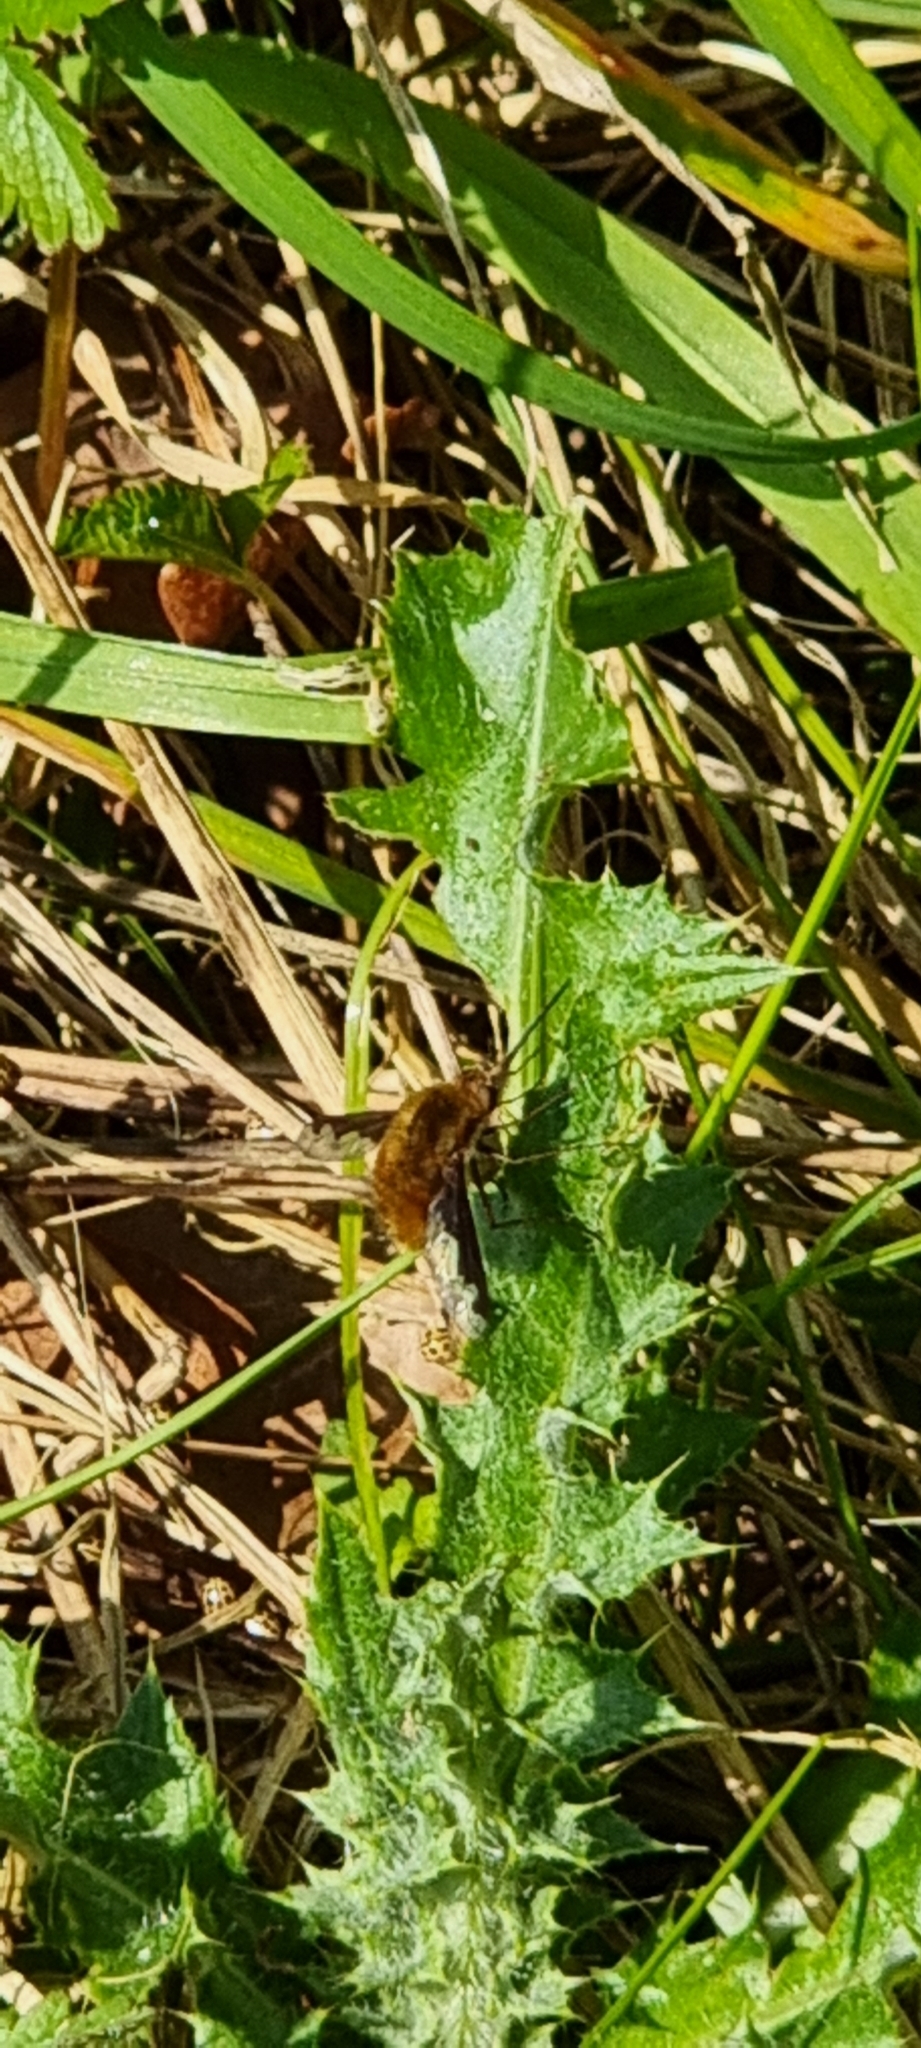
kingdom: Animalia
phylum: Arthropoda
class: Insecta
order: Diptera
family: Bombyliidae
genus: Bombylius
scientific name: Bombylius major
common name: Bee fly
